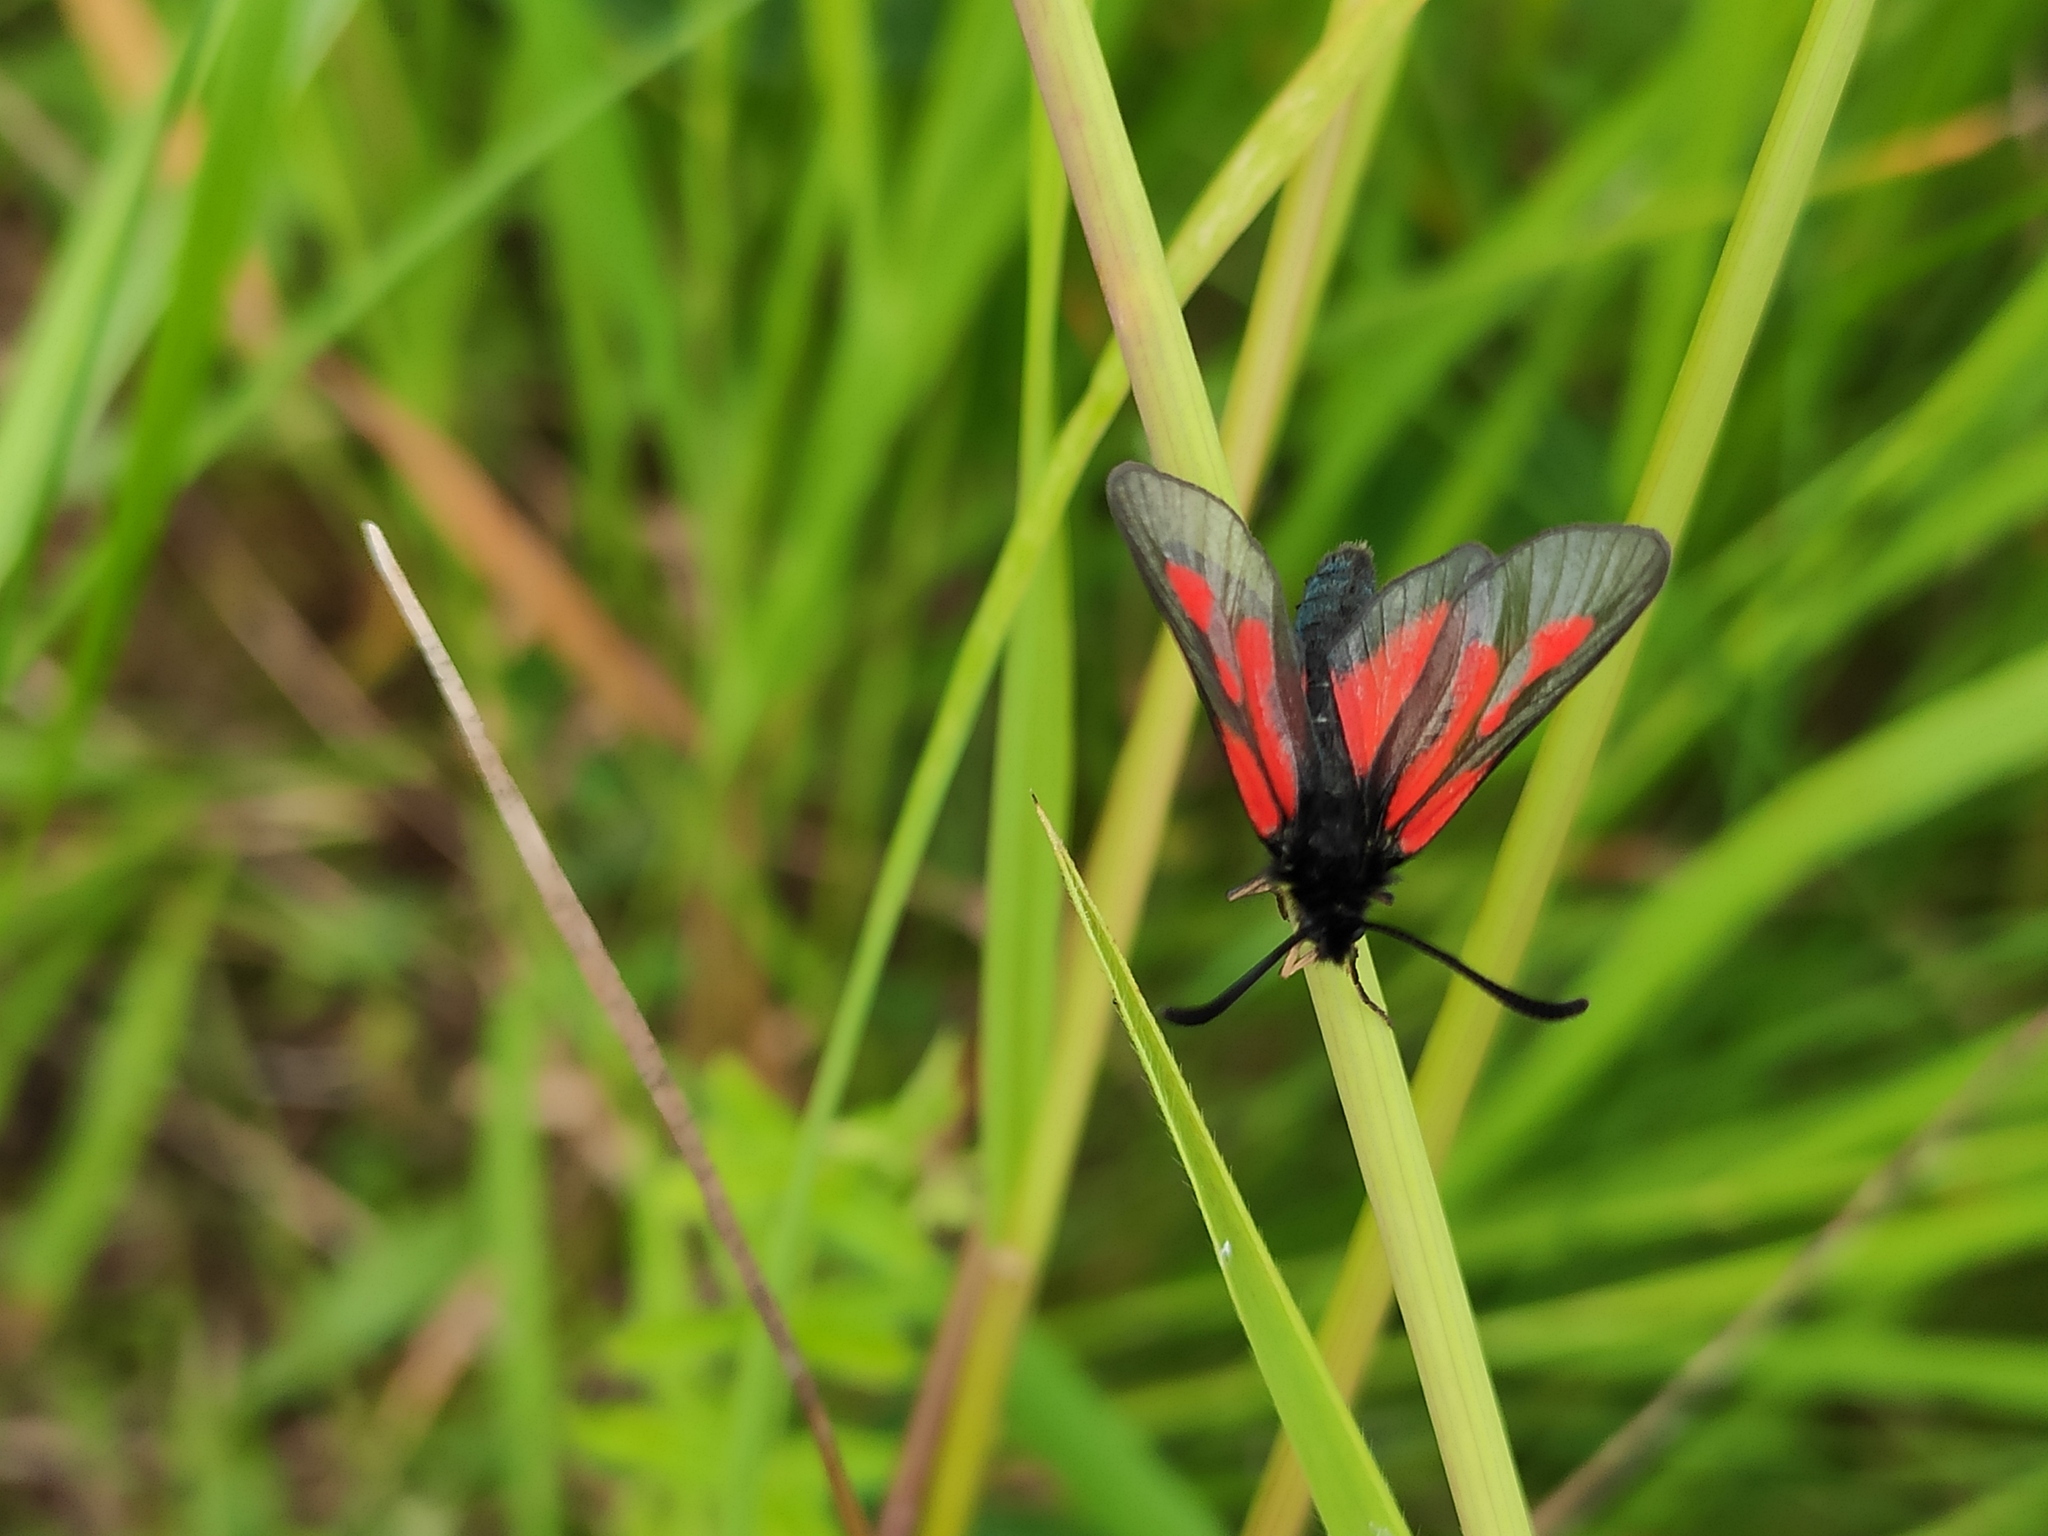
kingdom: Animalia
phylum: Arthropoda
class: Insecta
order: Lepidoptera
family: Zygaenidae
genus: Zygaena
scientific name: Zygaena osterodensis
